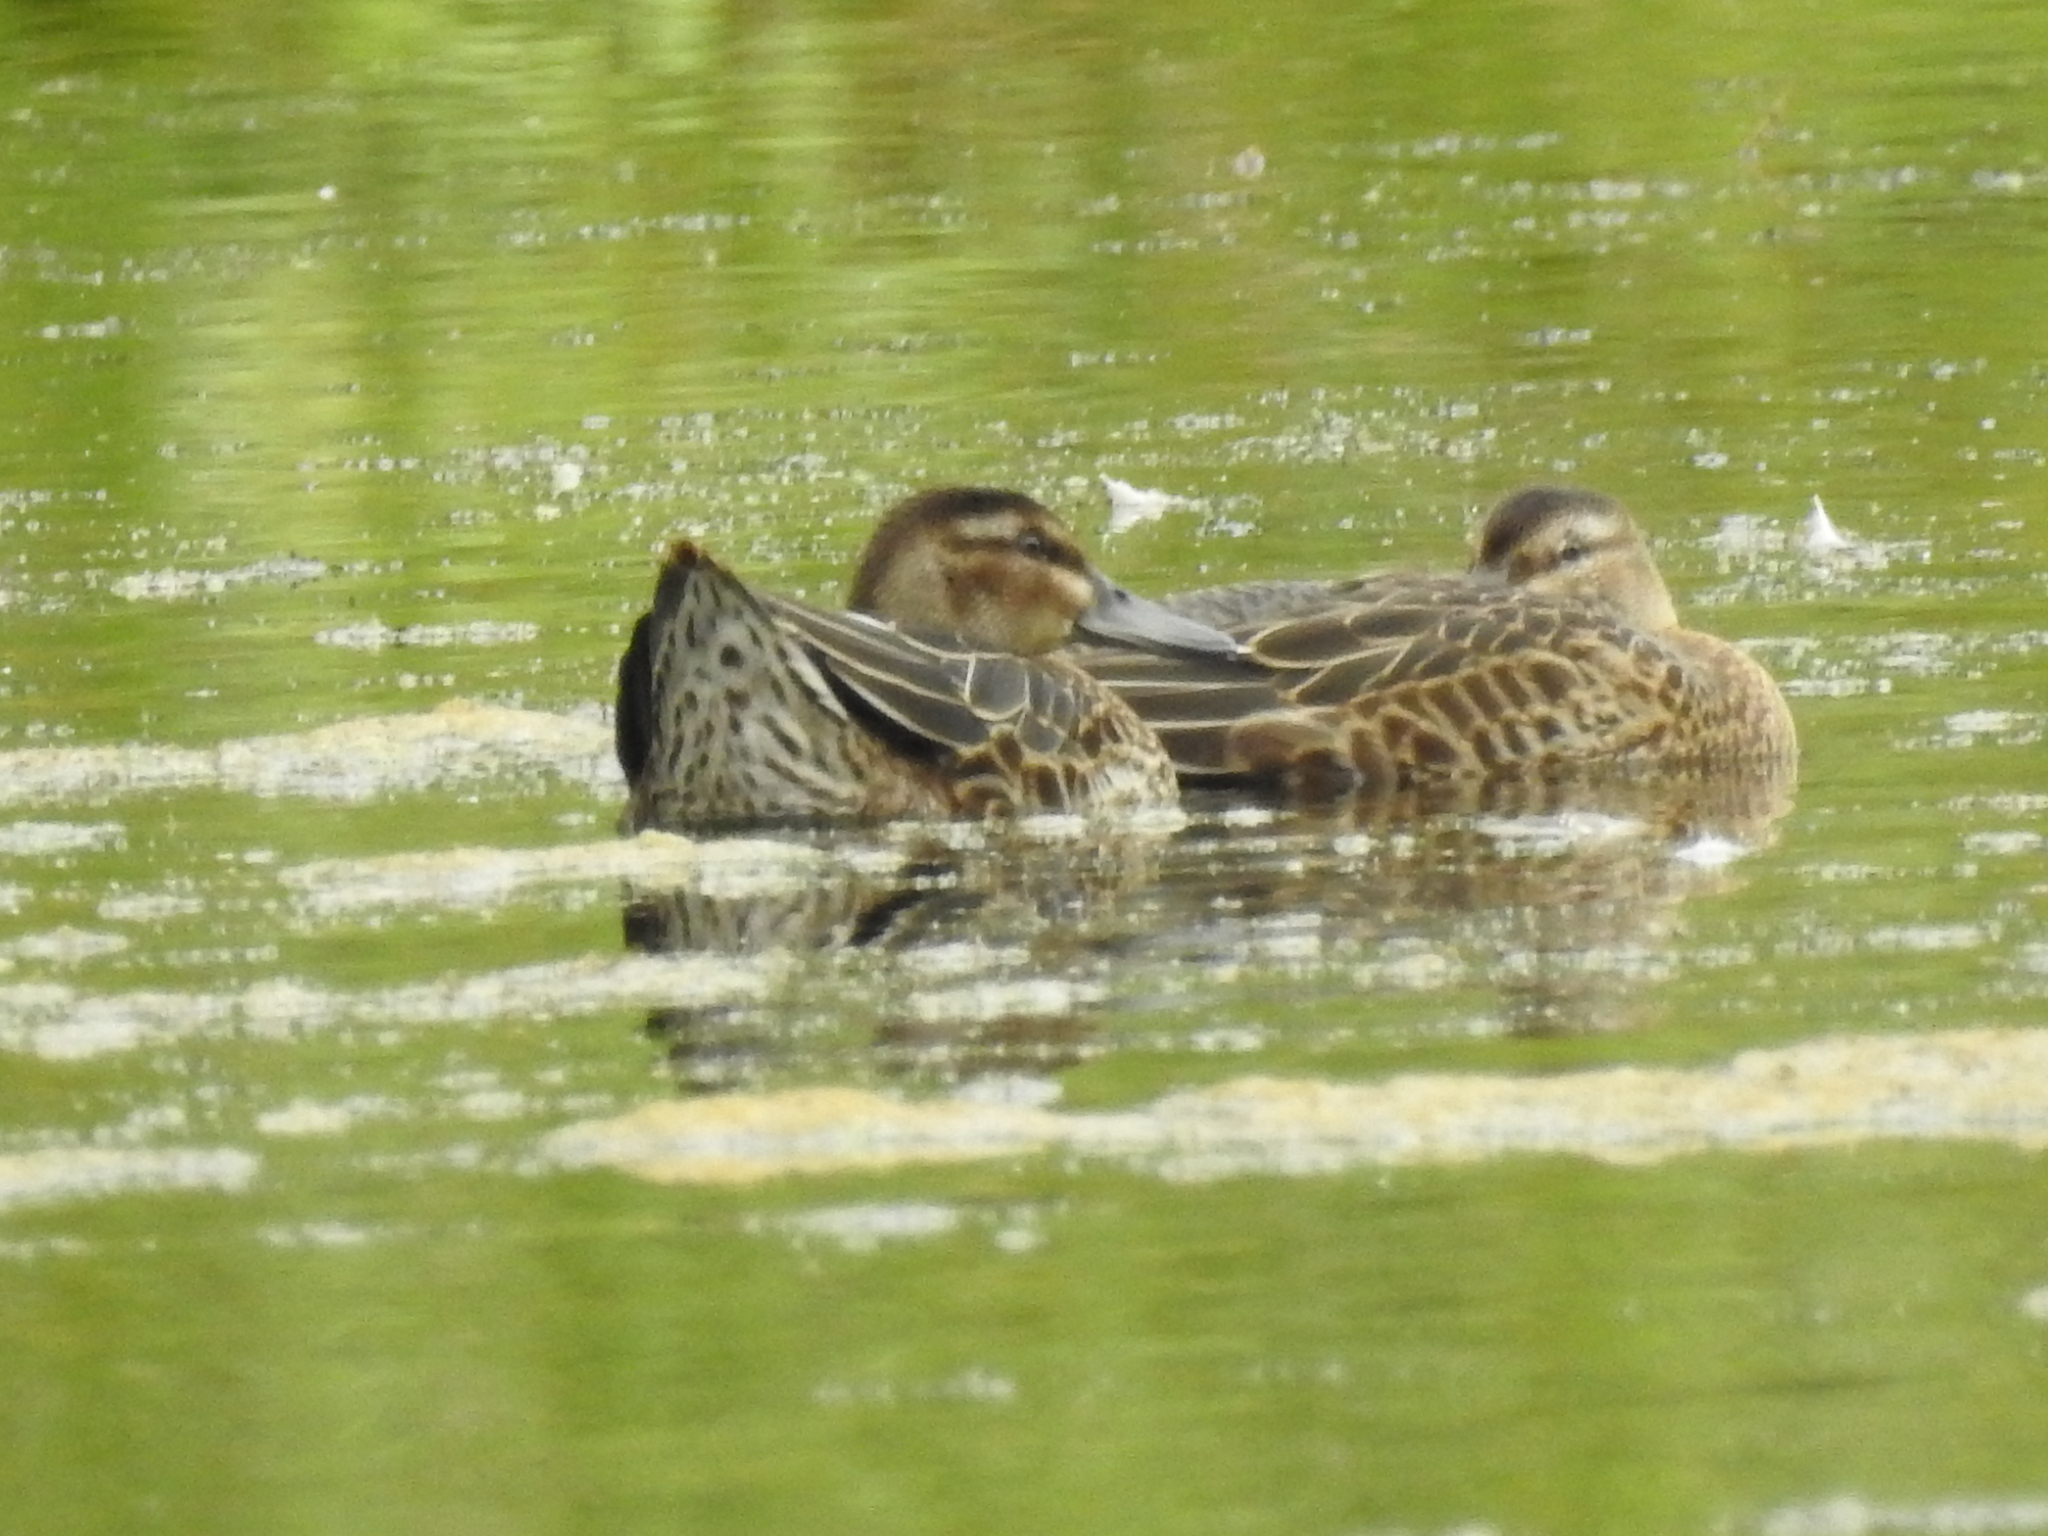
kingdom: Animalia
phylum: Chordata
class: Aves
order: Anseriformes
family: Anatidae
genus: Spatula
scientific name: Spatula querquedula
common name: Garganey
